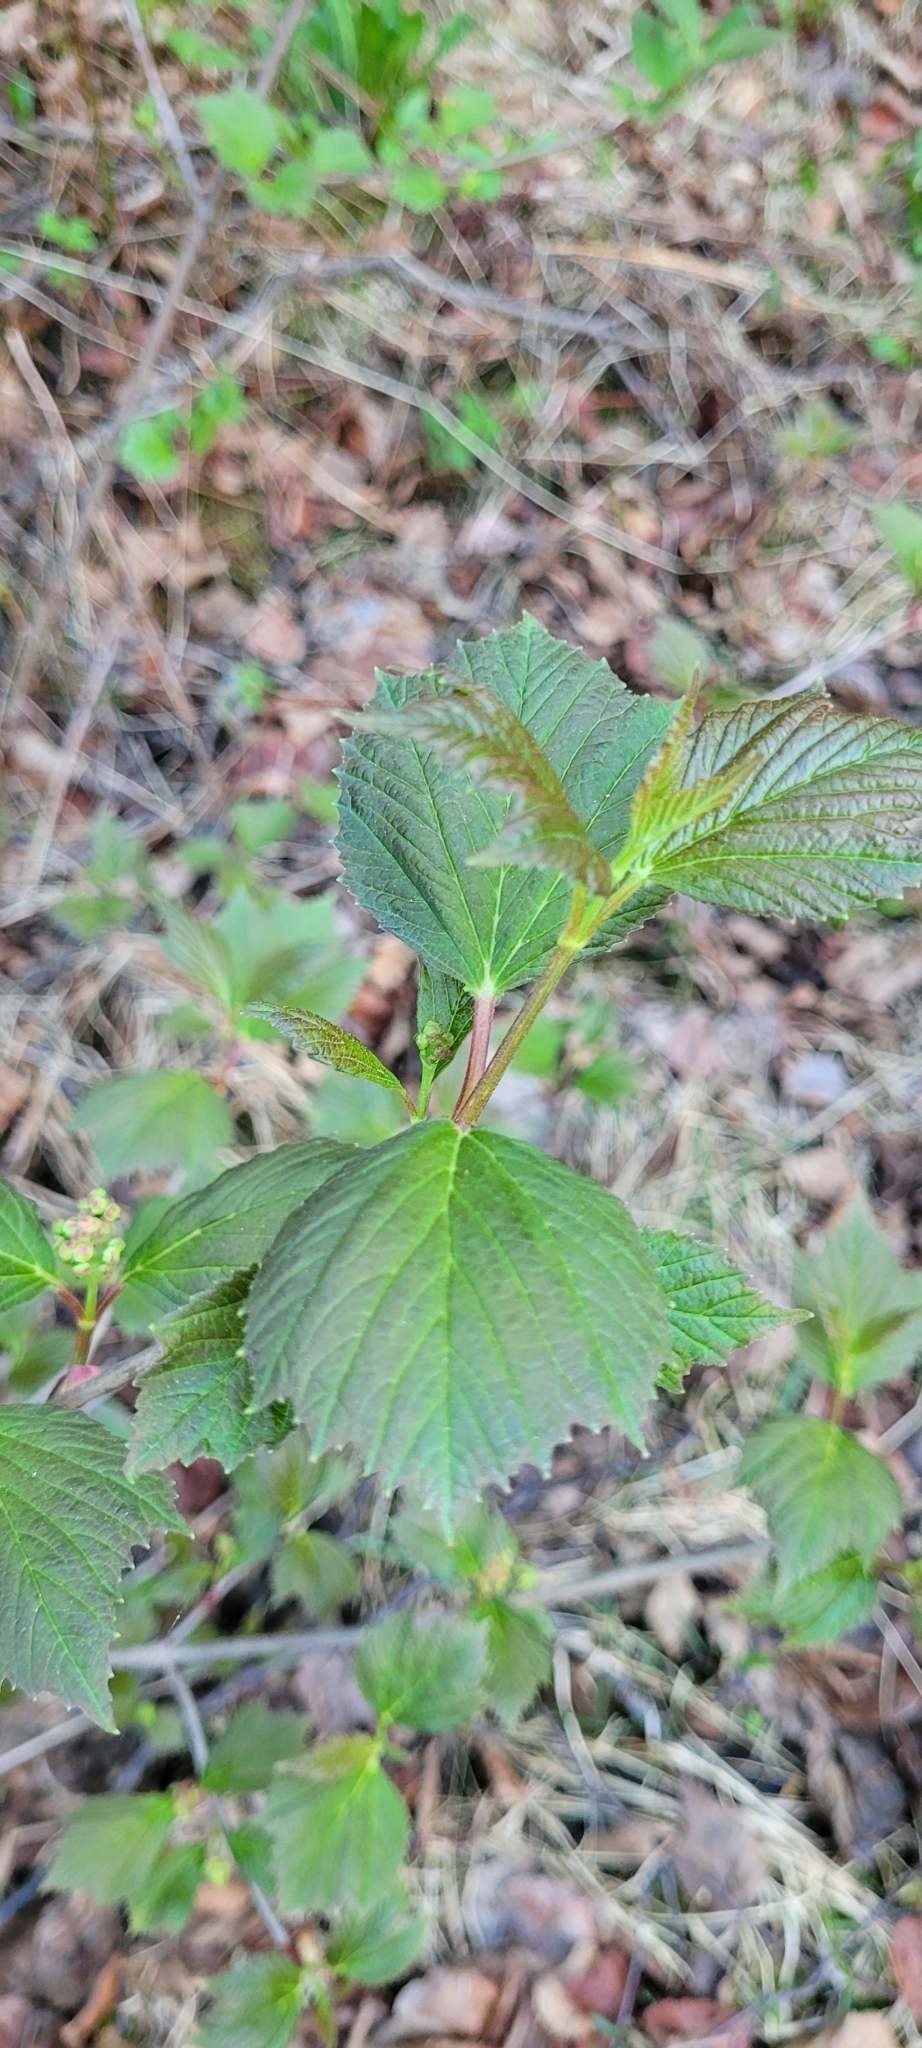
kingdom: Plantae
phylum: Tracheophyta
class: Magnoliopsida
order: Dipsacales
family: Viburnaceae
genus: Viburnum
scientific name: Viburnum edule
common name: Mooseberry
